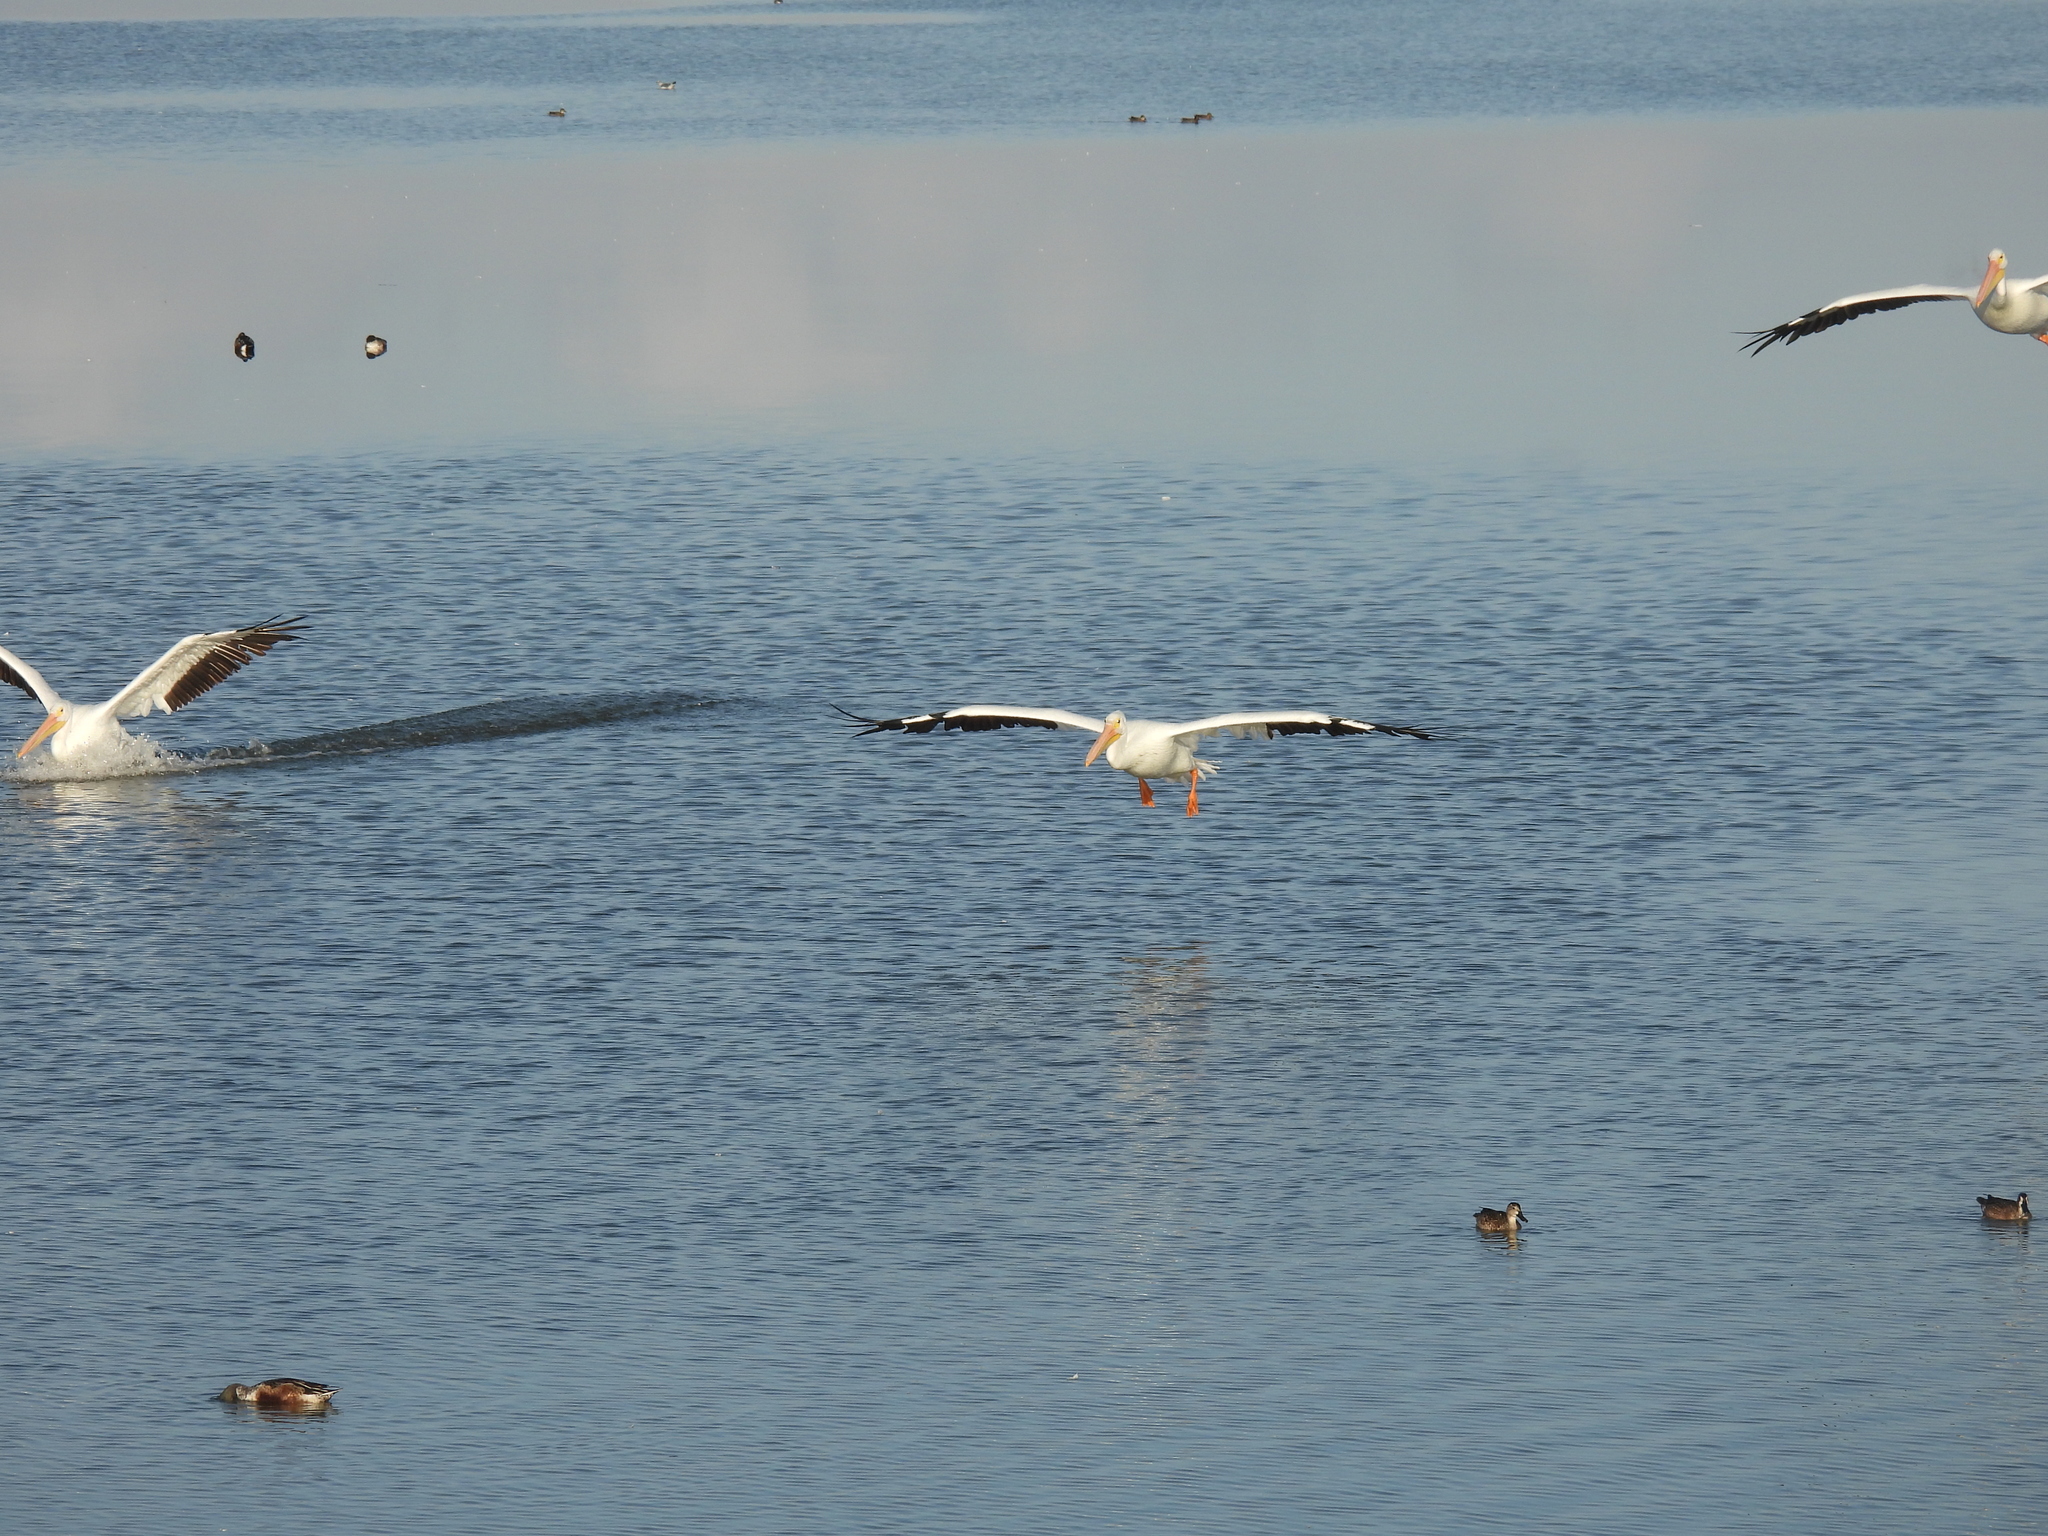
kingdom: Animalia
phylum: Chordata
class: Aves
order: Pelecaniformes
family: Pelecanidae
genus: Pelecanus
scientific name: Pelecanus erythrorhynchos
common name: American white pelican
